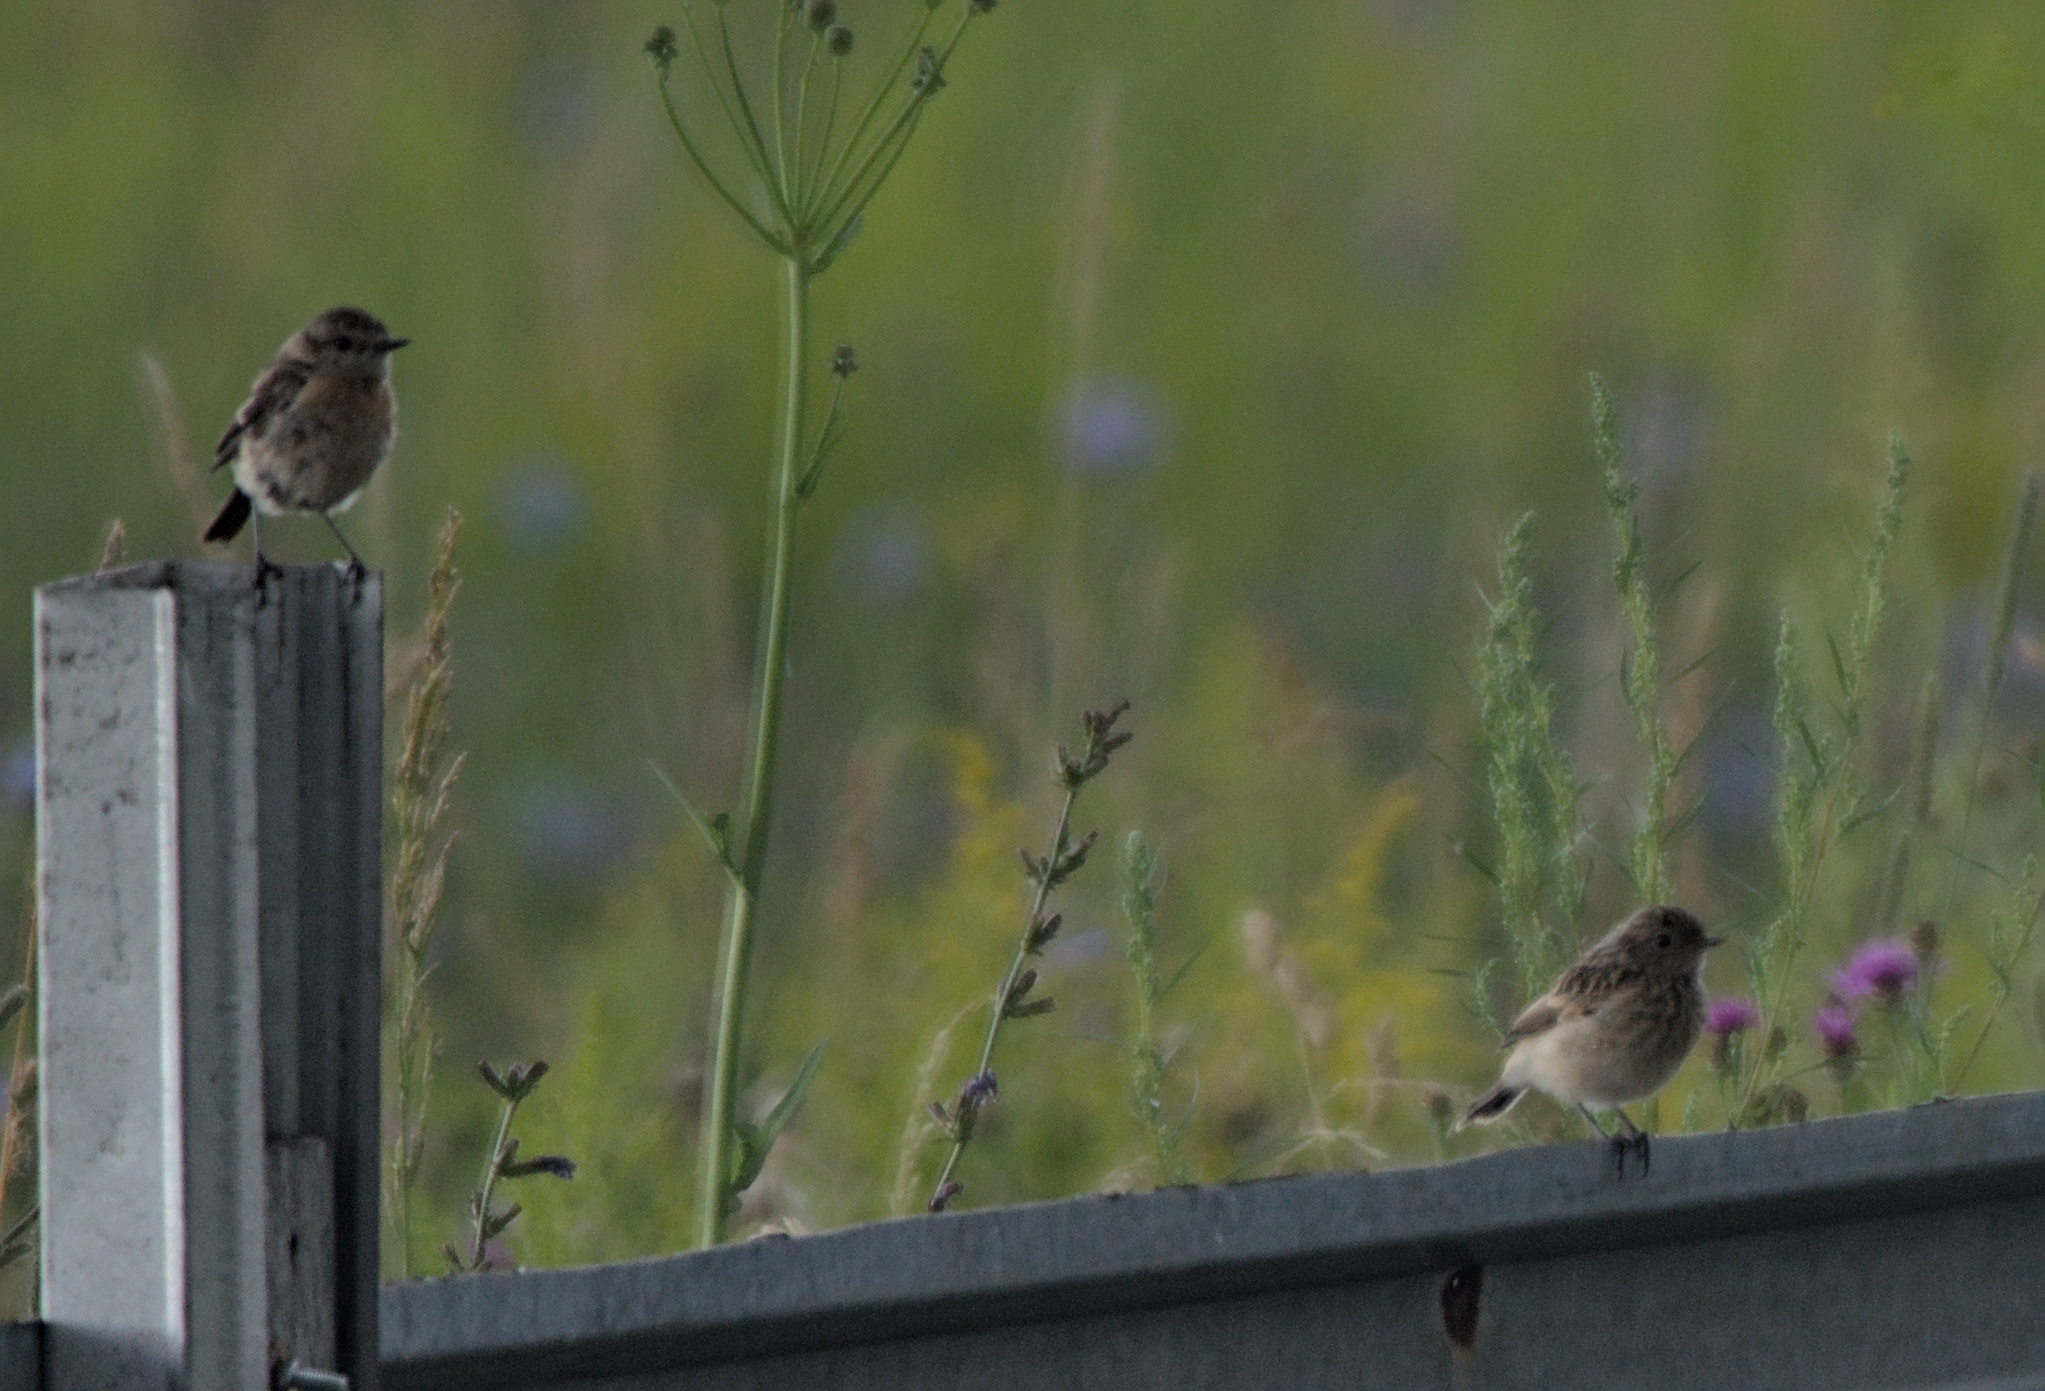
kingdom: Animalia
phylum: Chordata
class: Aves
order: Passeriformes
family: Muscicapidae
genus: Saxicola
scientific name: Saxicola maurus
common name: Siberian stonechat
